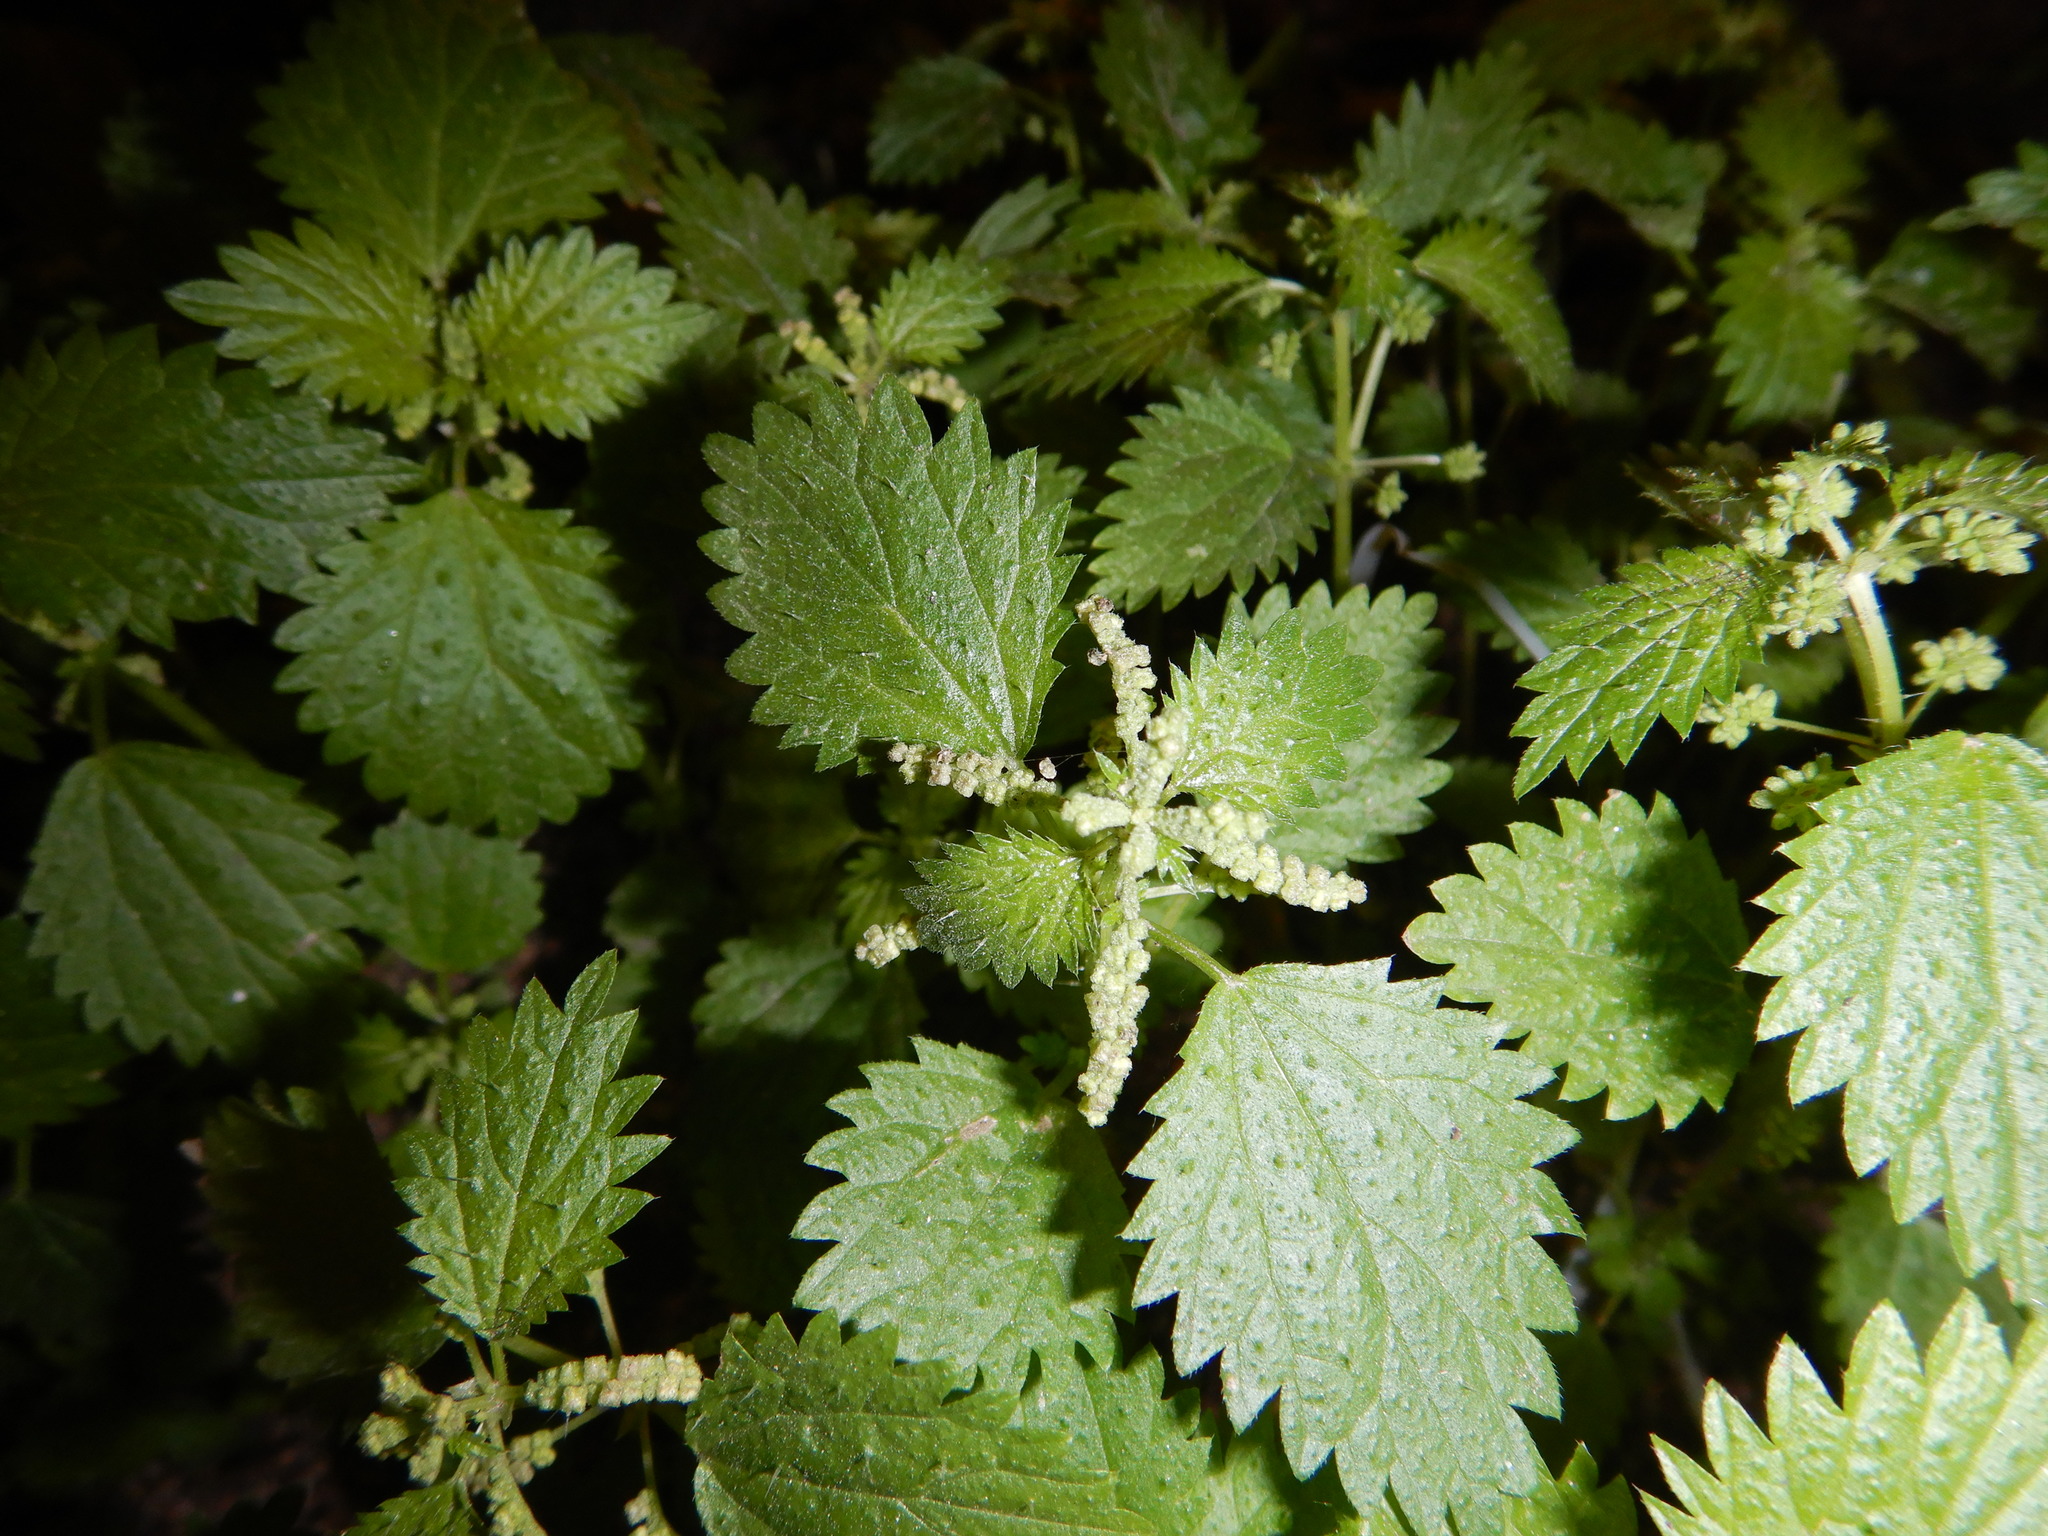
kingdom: Plantae
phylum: Tracheophyta
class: Magnoliopsida
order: Rosales
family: Urticaceae
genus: Urtica
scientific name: Urtica membranacea
